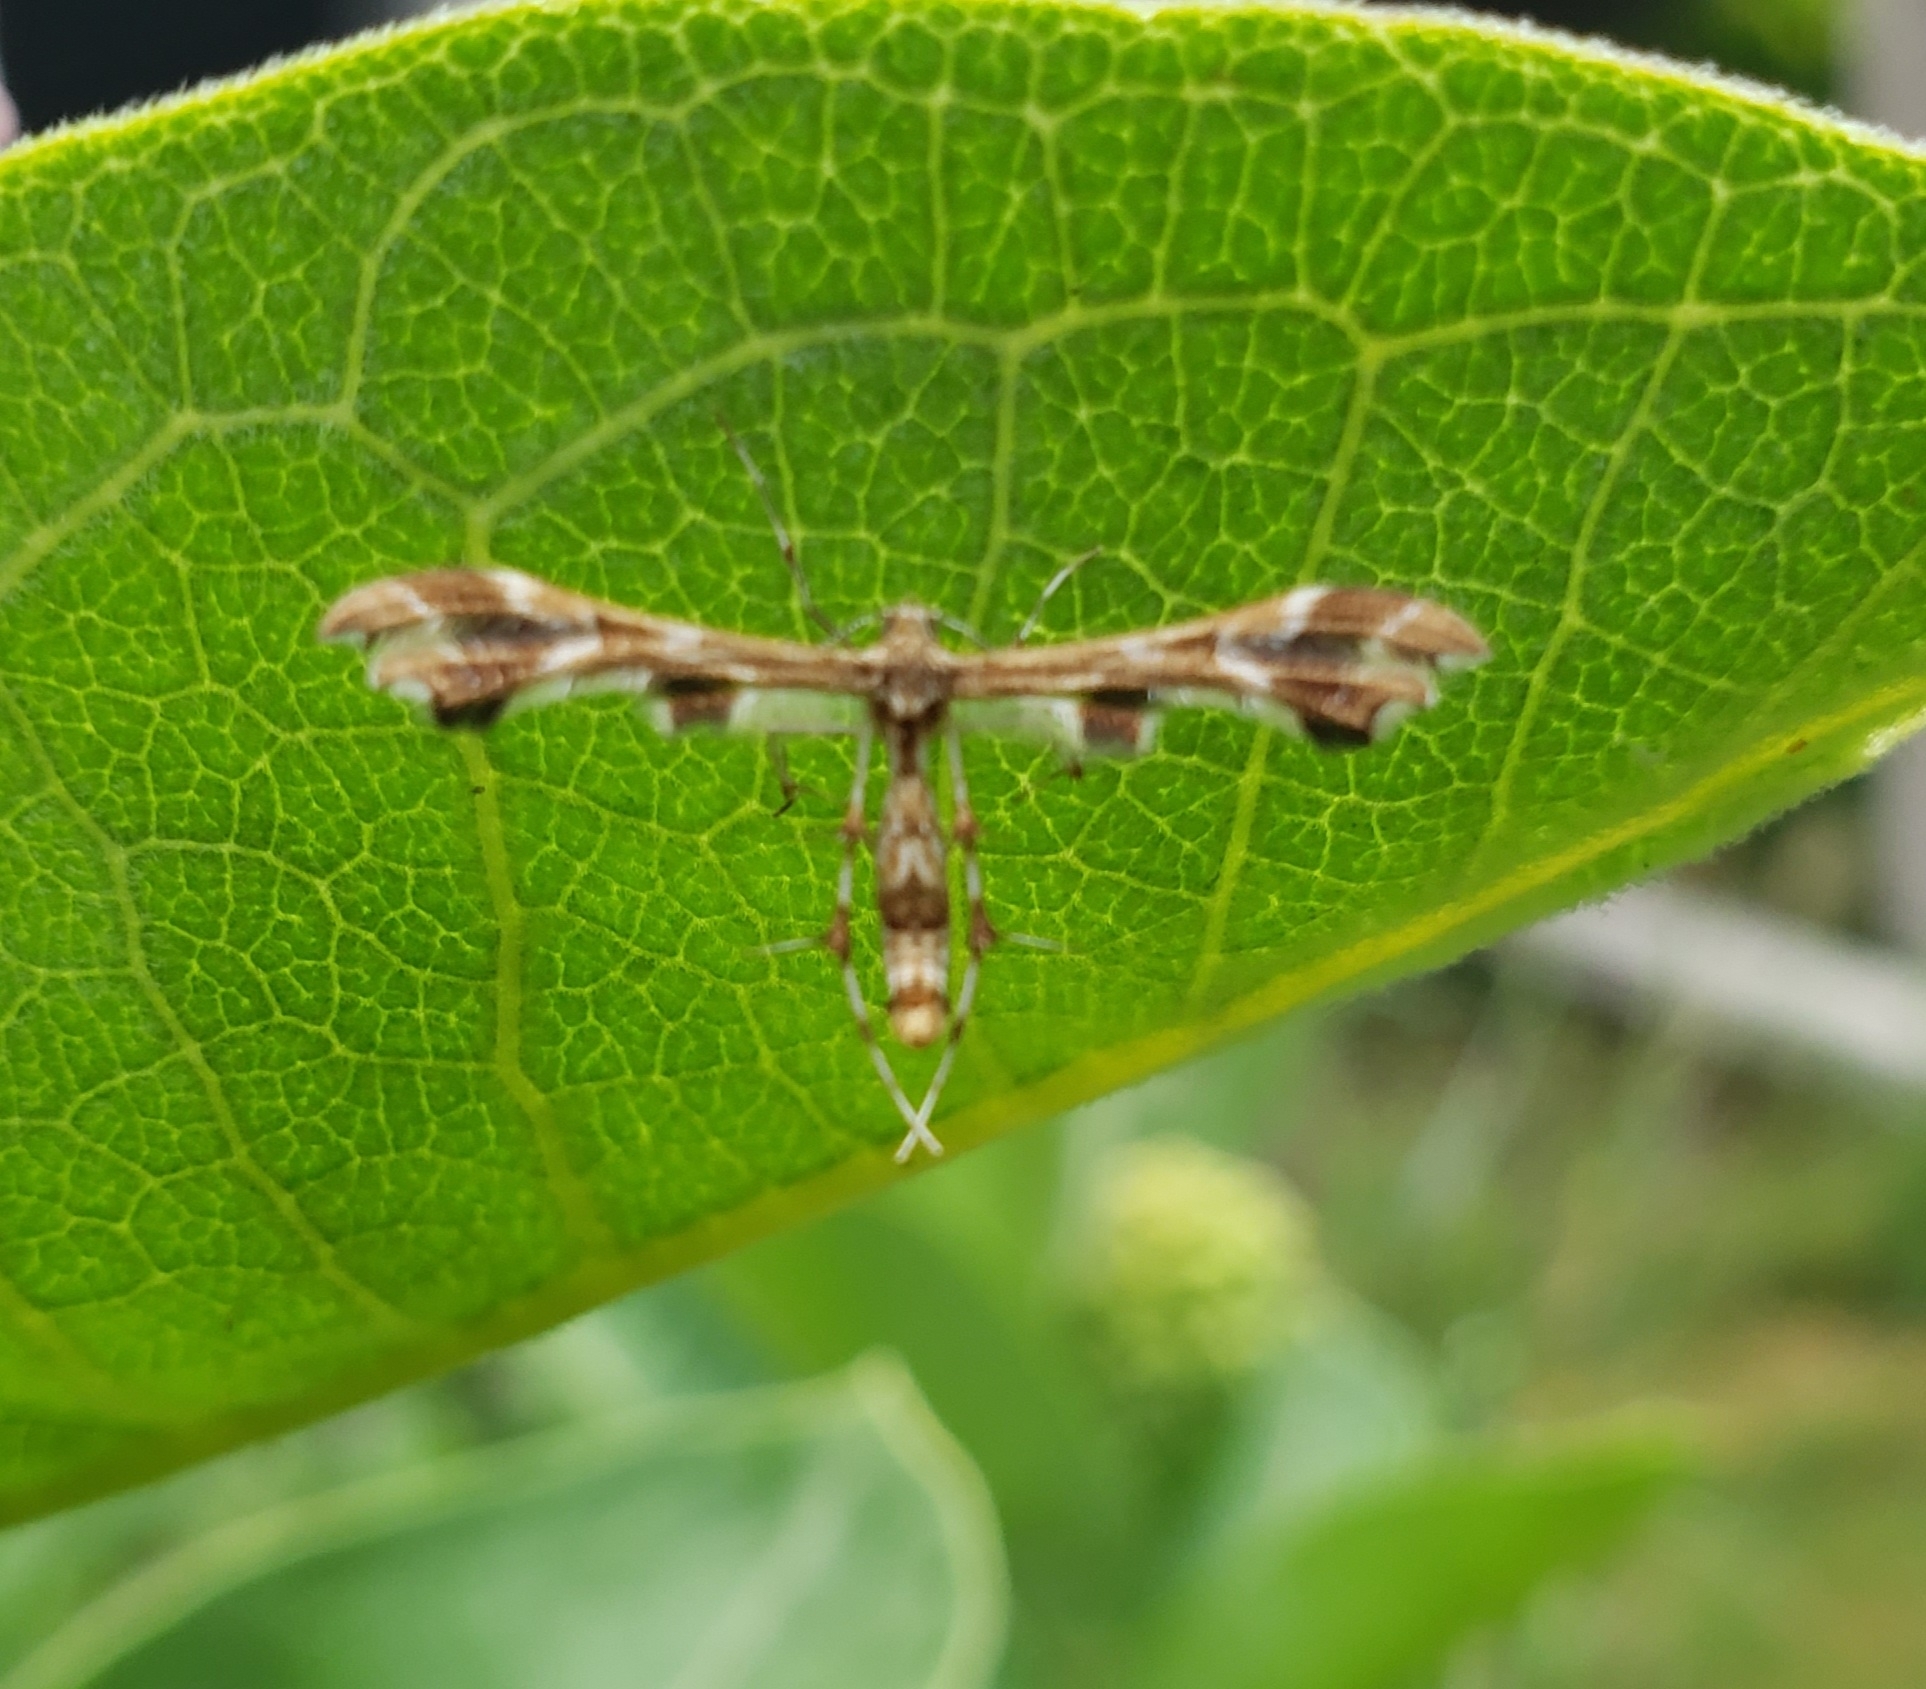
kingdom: Animalia
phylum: Arthropoda
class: Insecta
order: Lepidoptera
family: Pterophoridae
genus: Geina
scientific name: Geina periscelidactylus
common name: Grape plume moth
